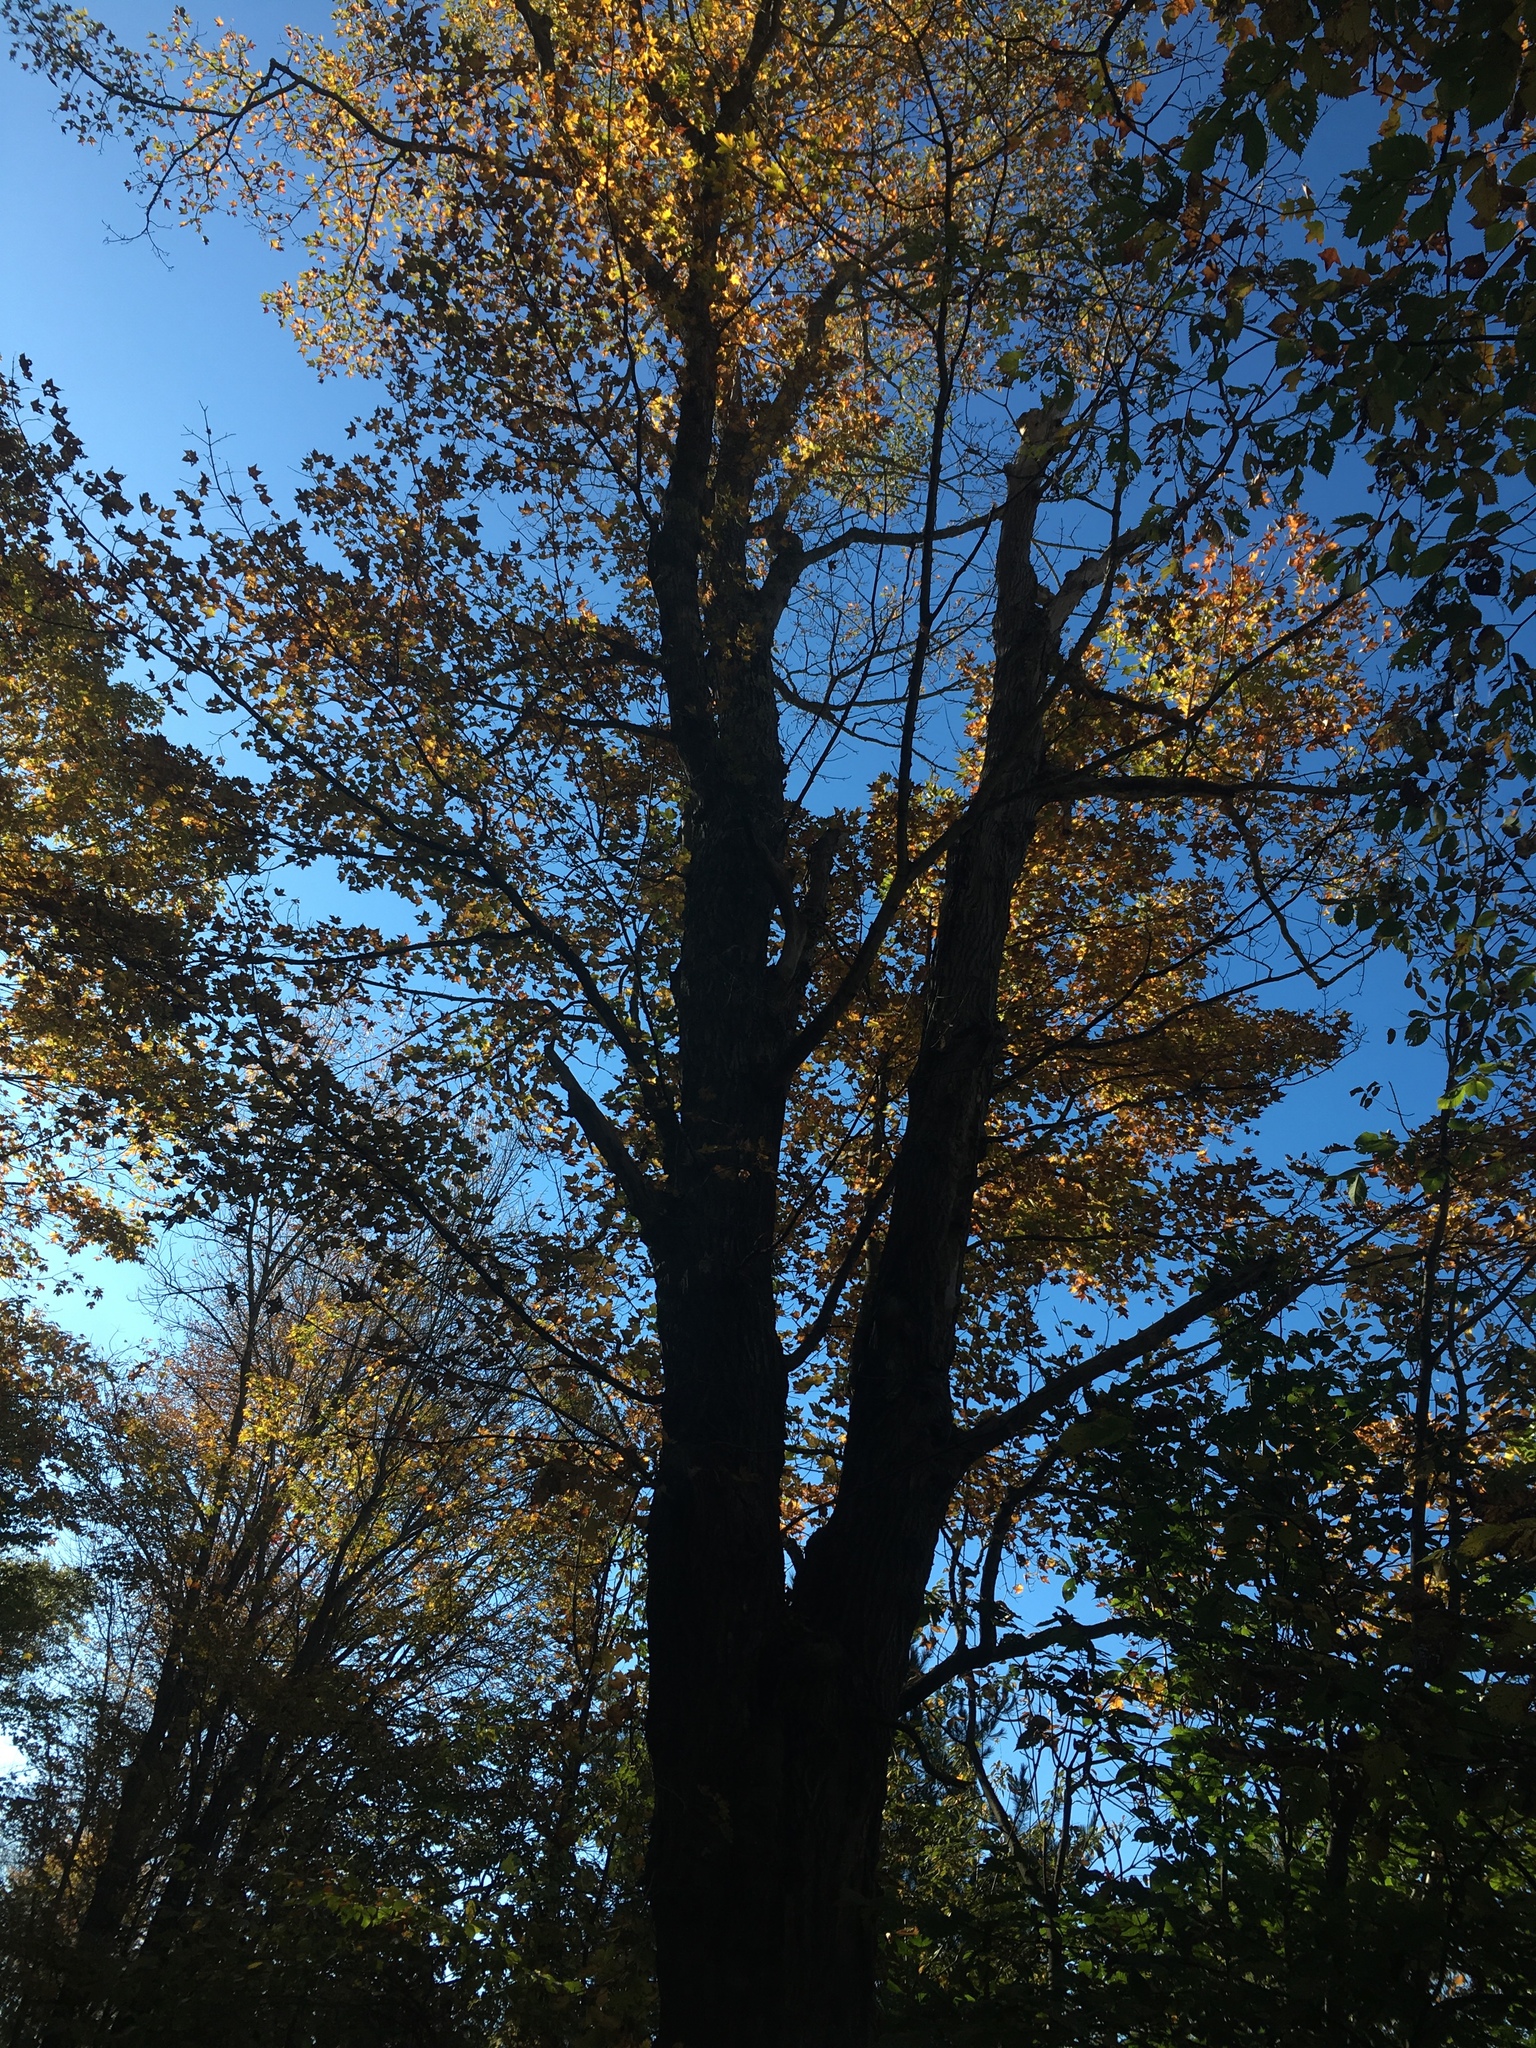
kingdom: Plantae
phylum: Tracheophyta
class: Magnoliopsida
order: Sapindales
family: Sapindaceae
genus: Acer
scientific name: Acer saccharum
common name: Sugar maple
